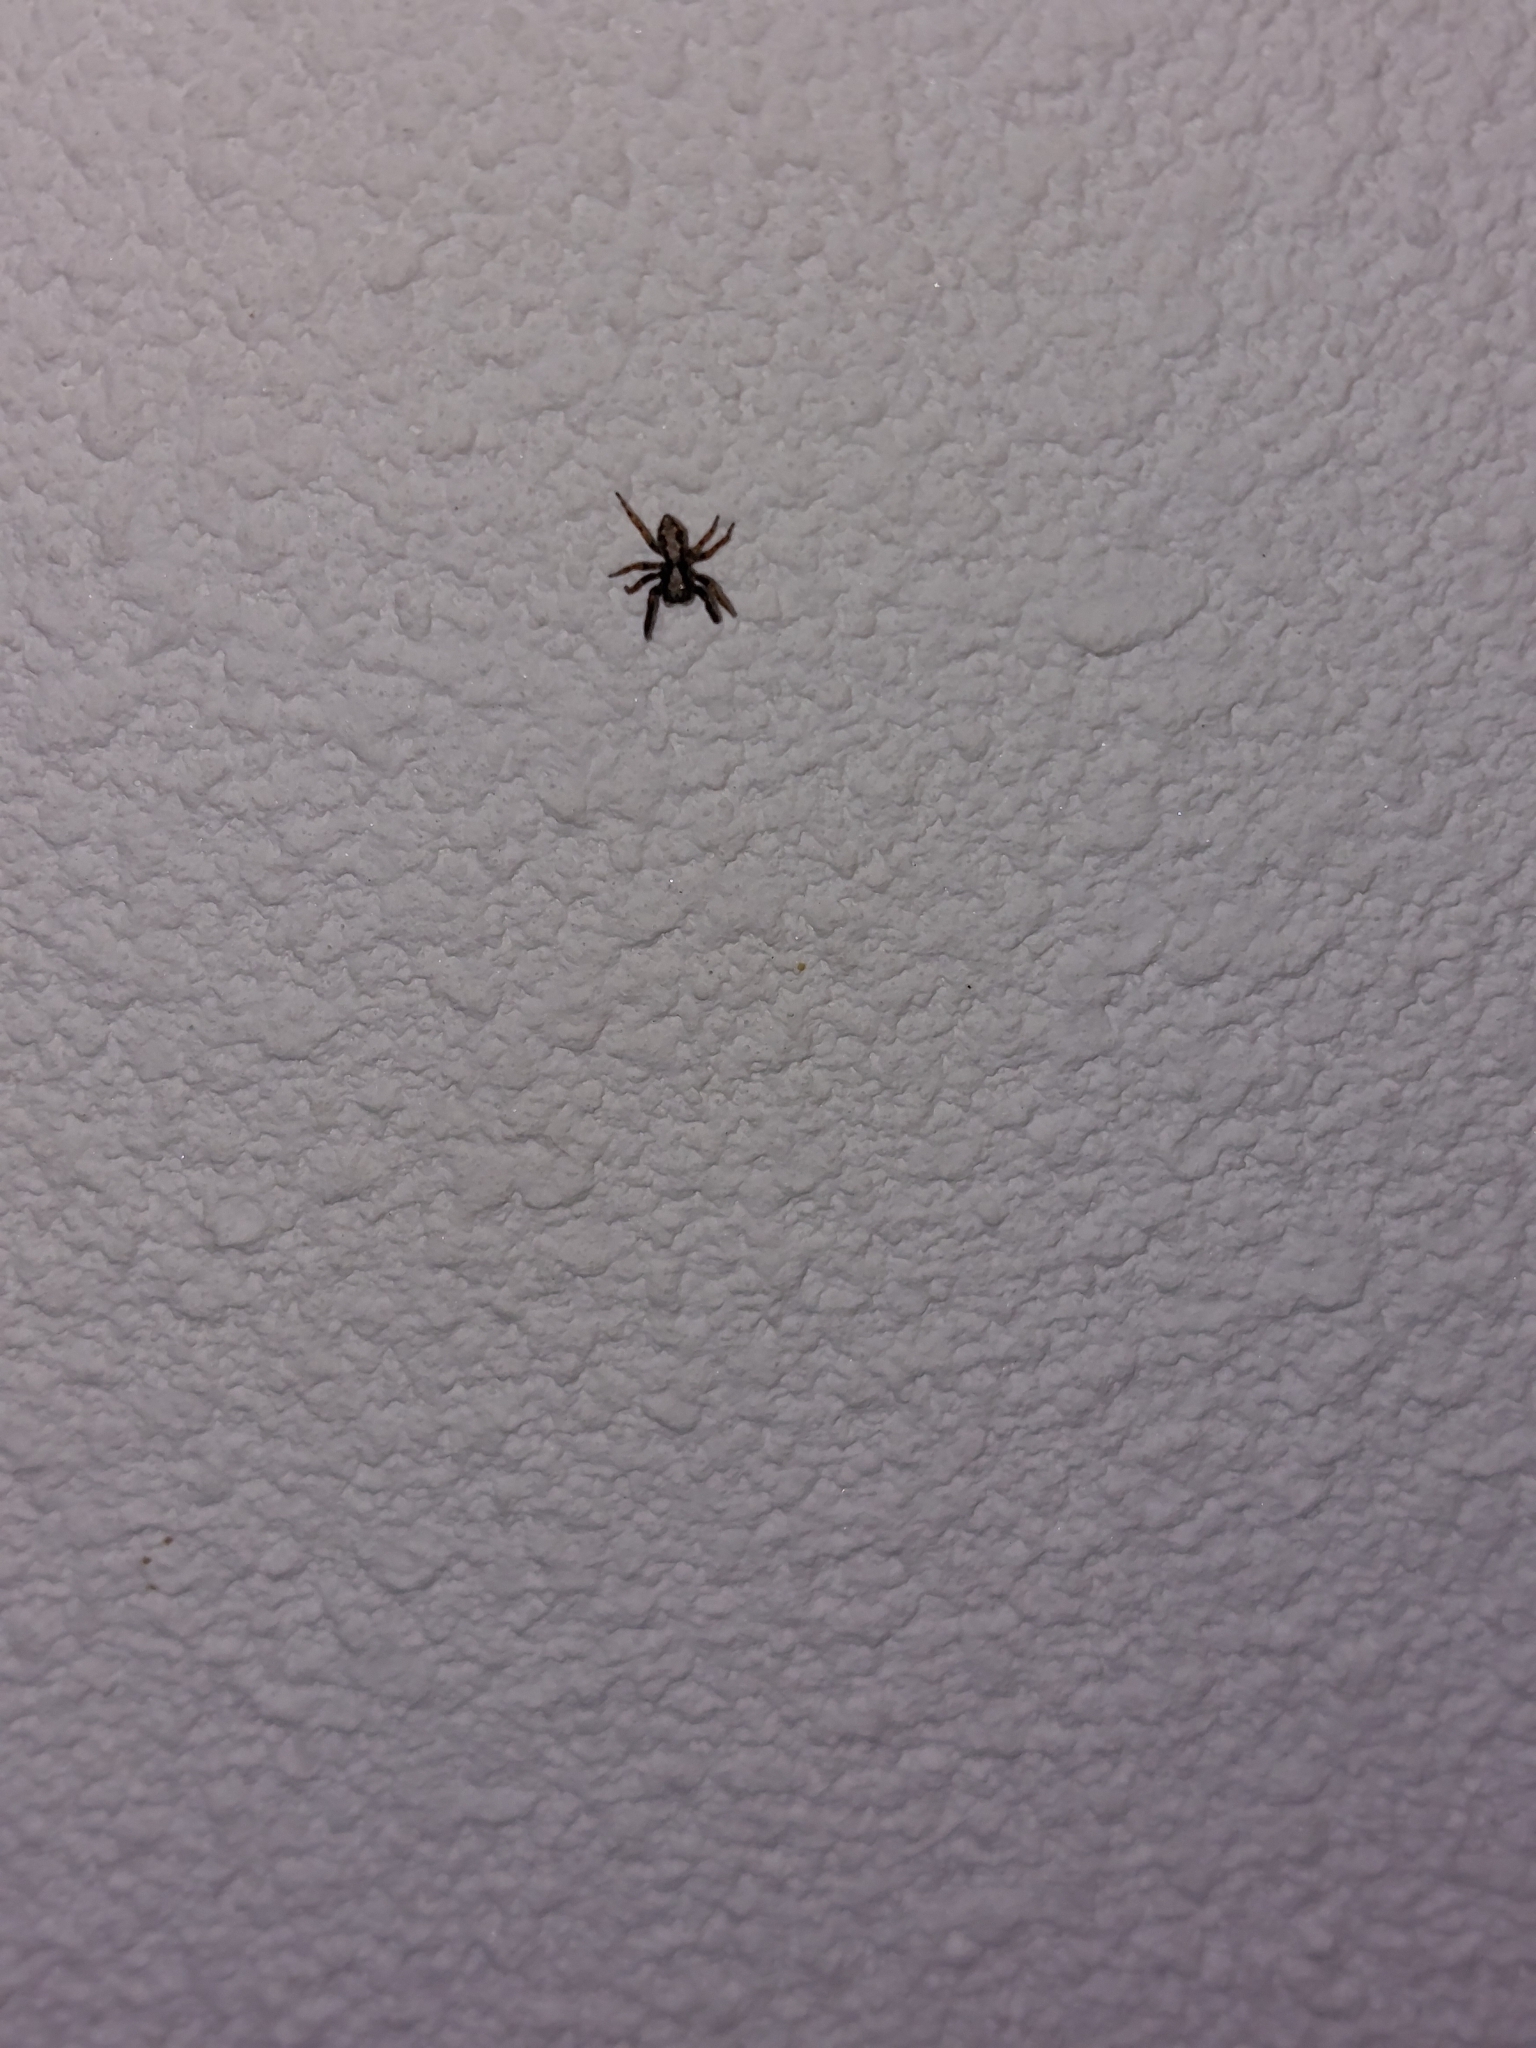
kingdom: Animalia
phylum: Arthropoda
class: Arachnida
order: Araneae
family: Salticidae
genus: Pseudeuophrys
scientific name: Pseudeuophrys lanigera
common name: Jumping spider
